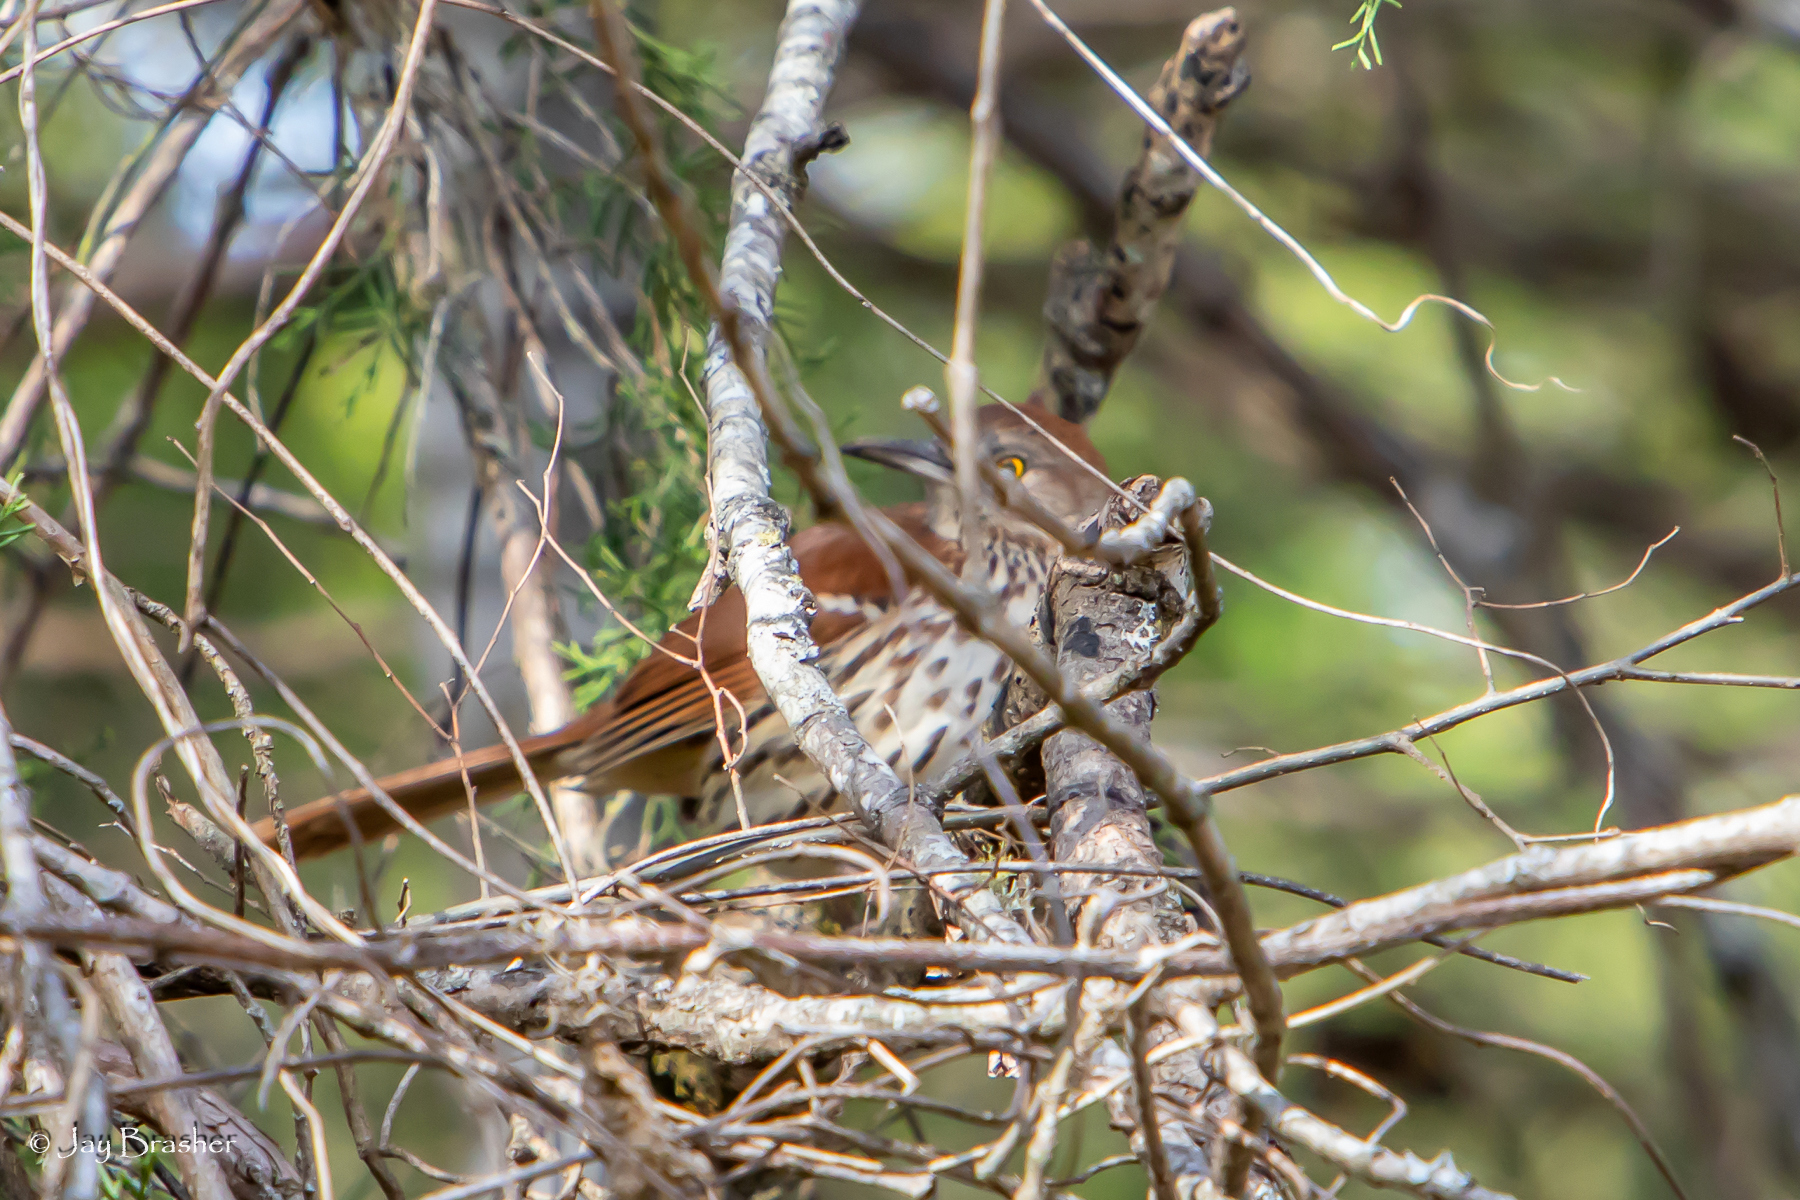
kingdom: Animalia
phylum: Chordata
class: Aves
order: Passeriformes
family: Mimidae
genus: Toxostoma
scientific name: Toxostoma rufum
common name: Brown thrasher
